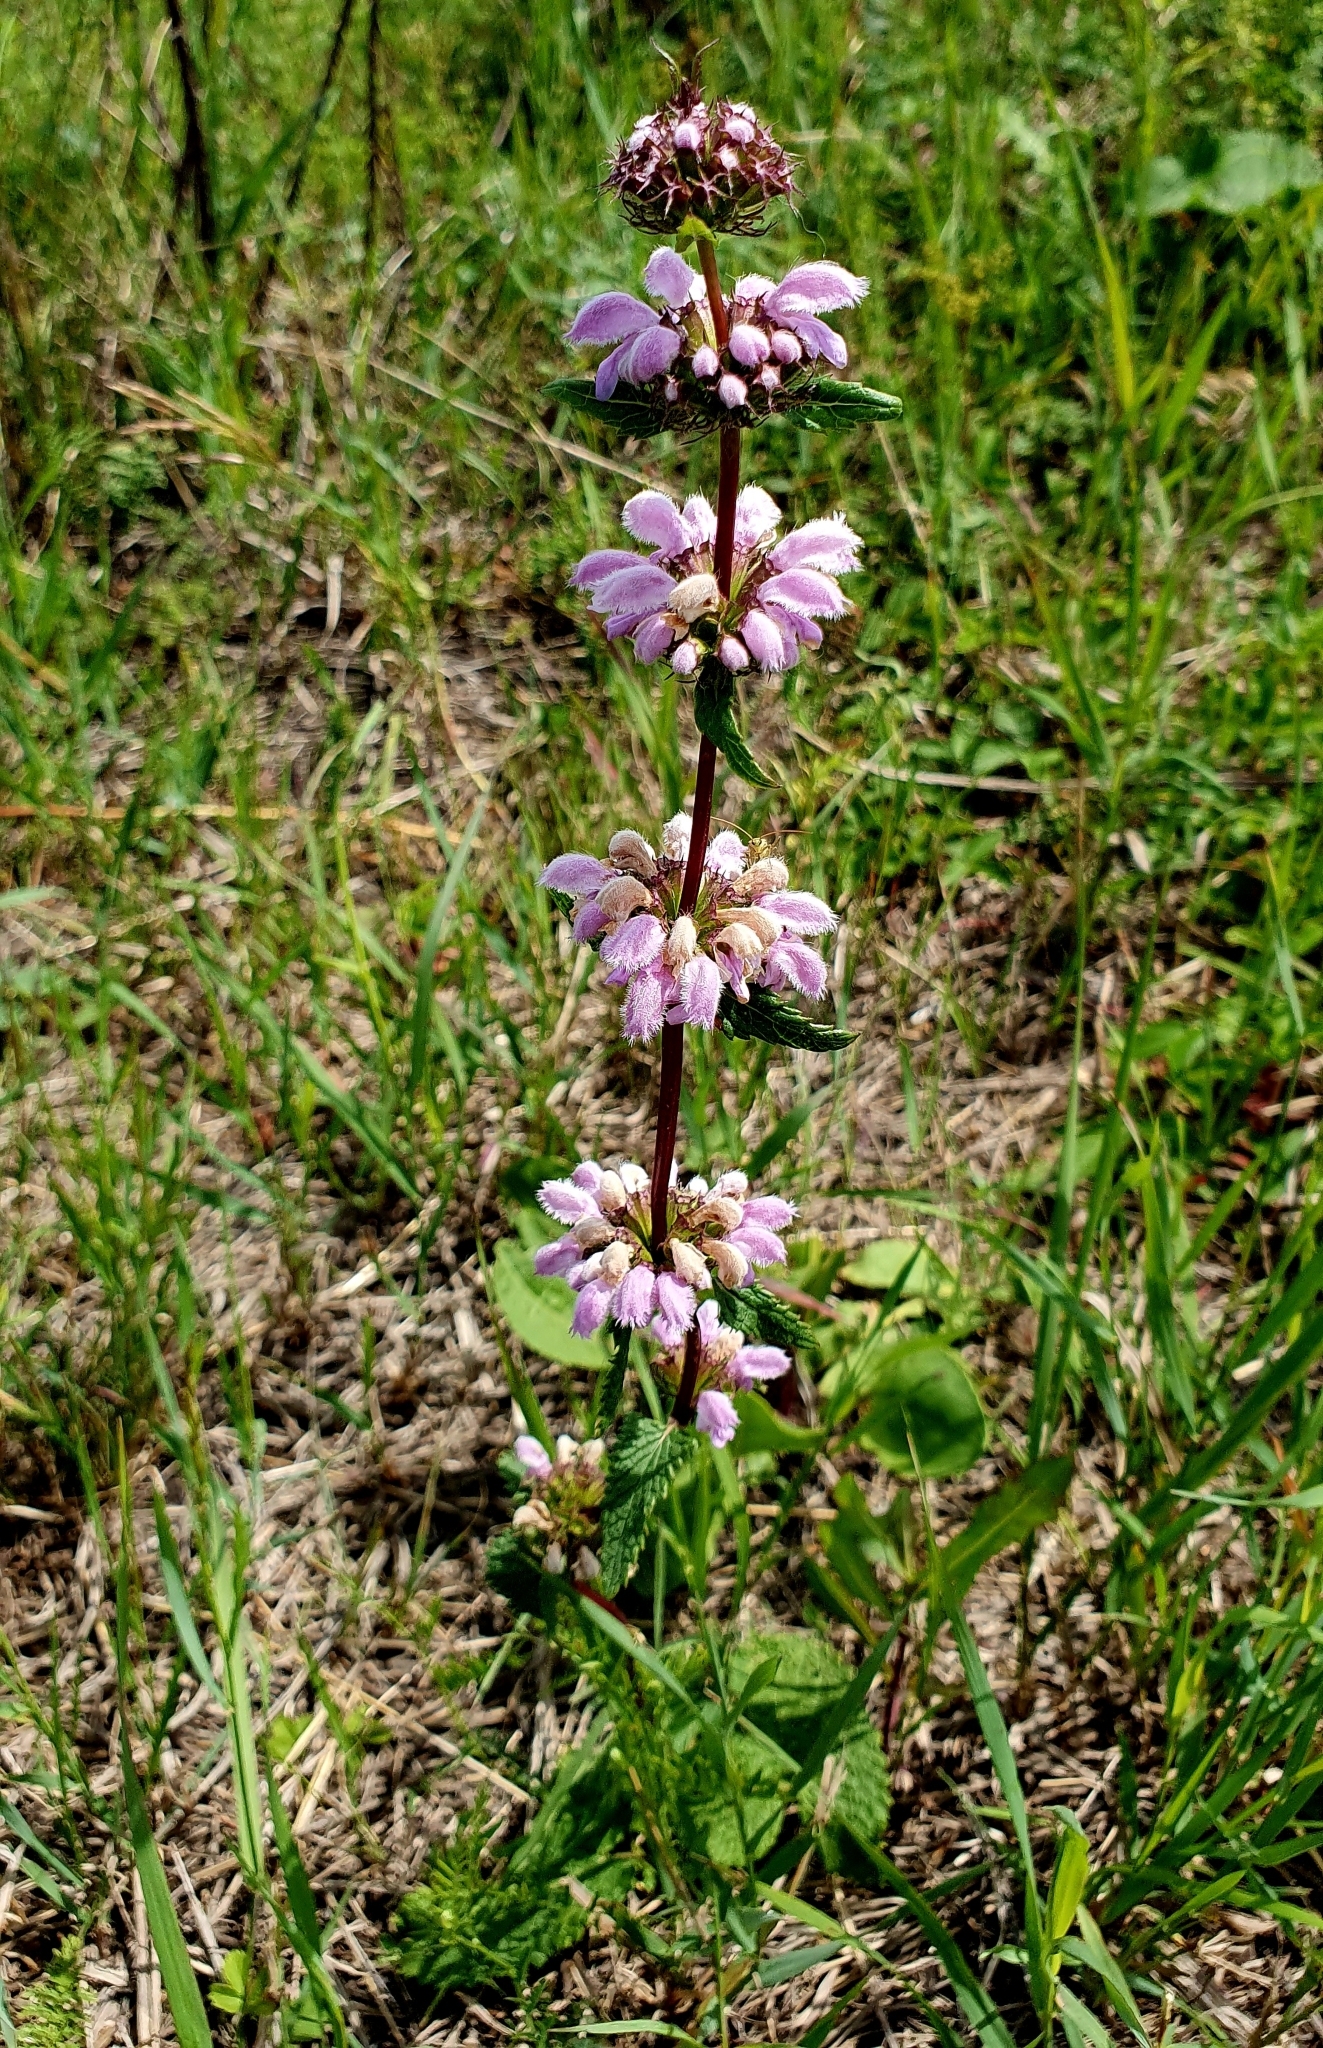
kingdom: Plantae
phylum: Tracheophyta
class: Magnoliopsida
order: Lamiales
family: Lamiaceae
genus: Phlomoides
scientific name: Phlomoides tuberosa
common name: Tuberous jerusalem sage
